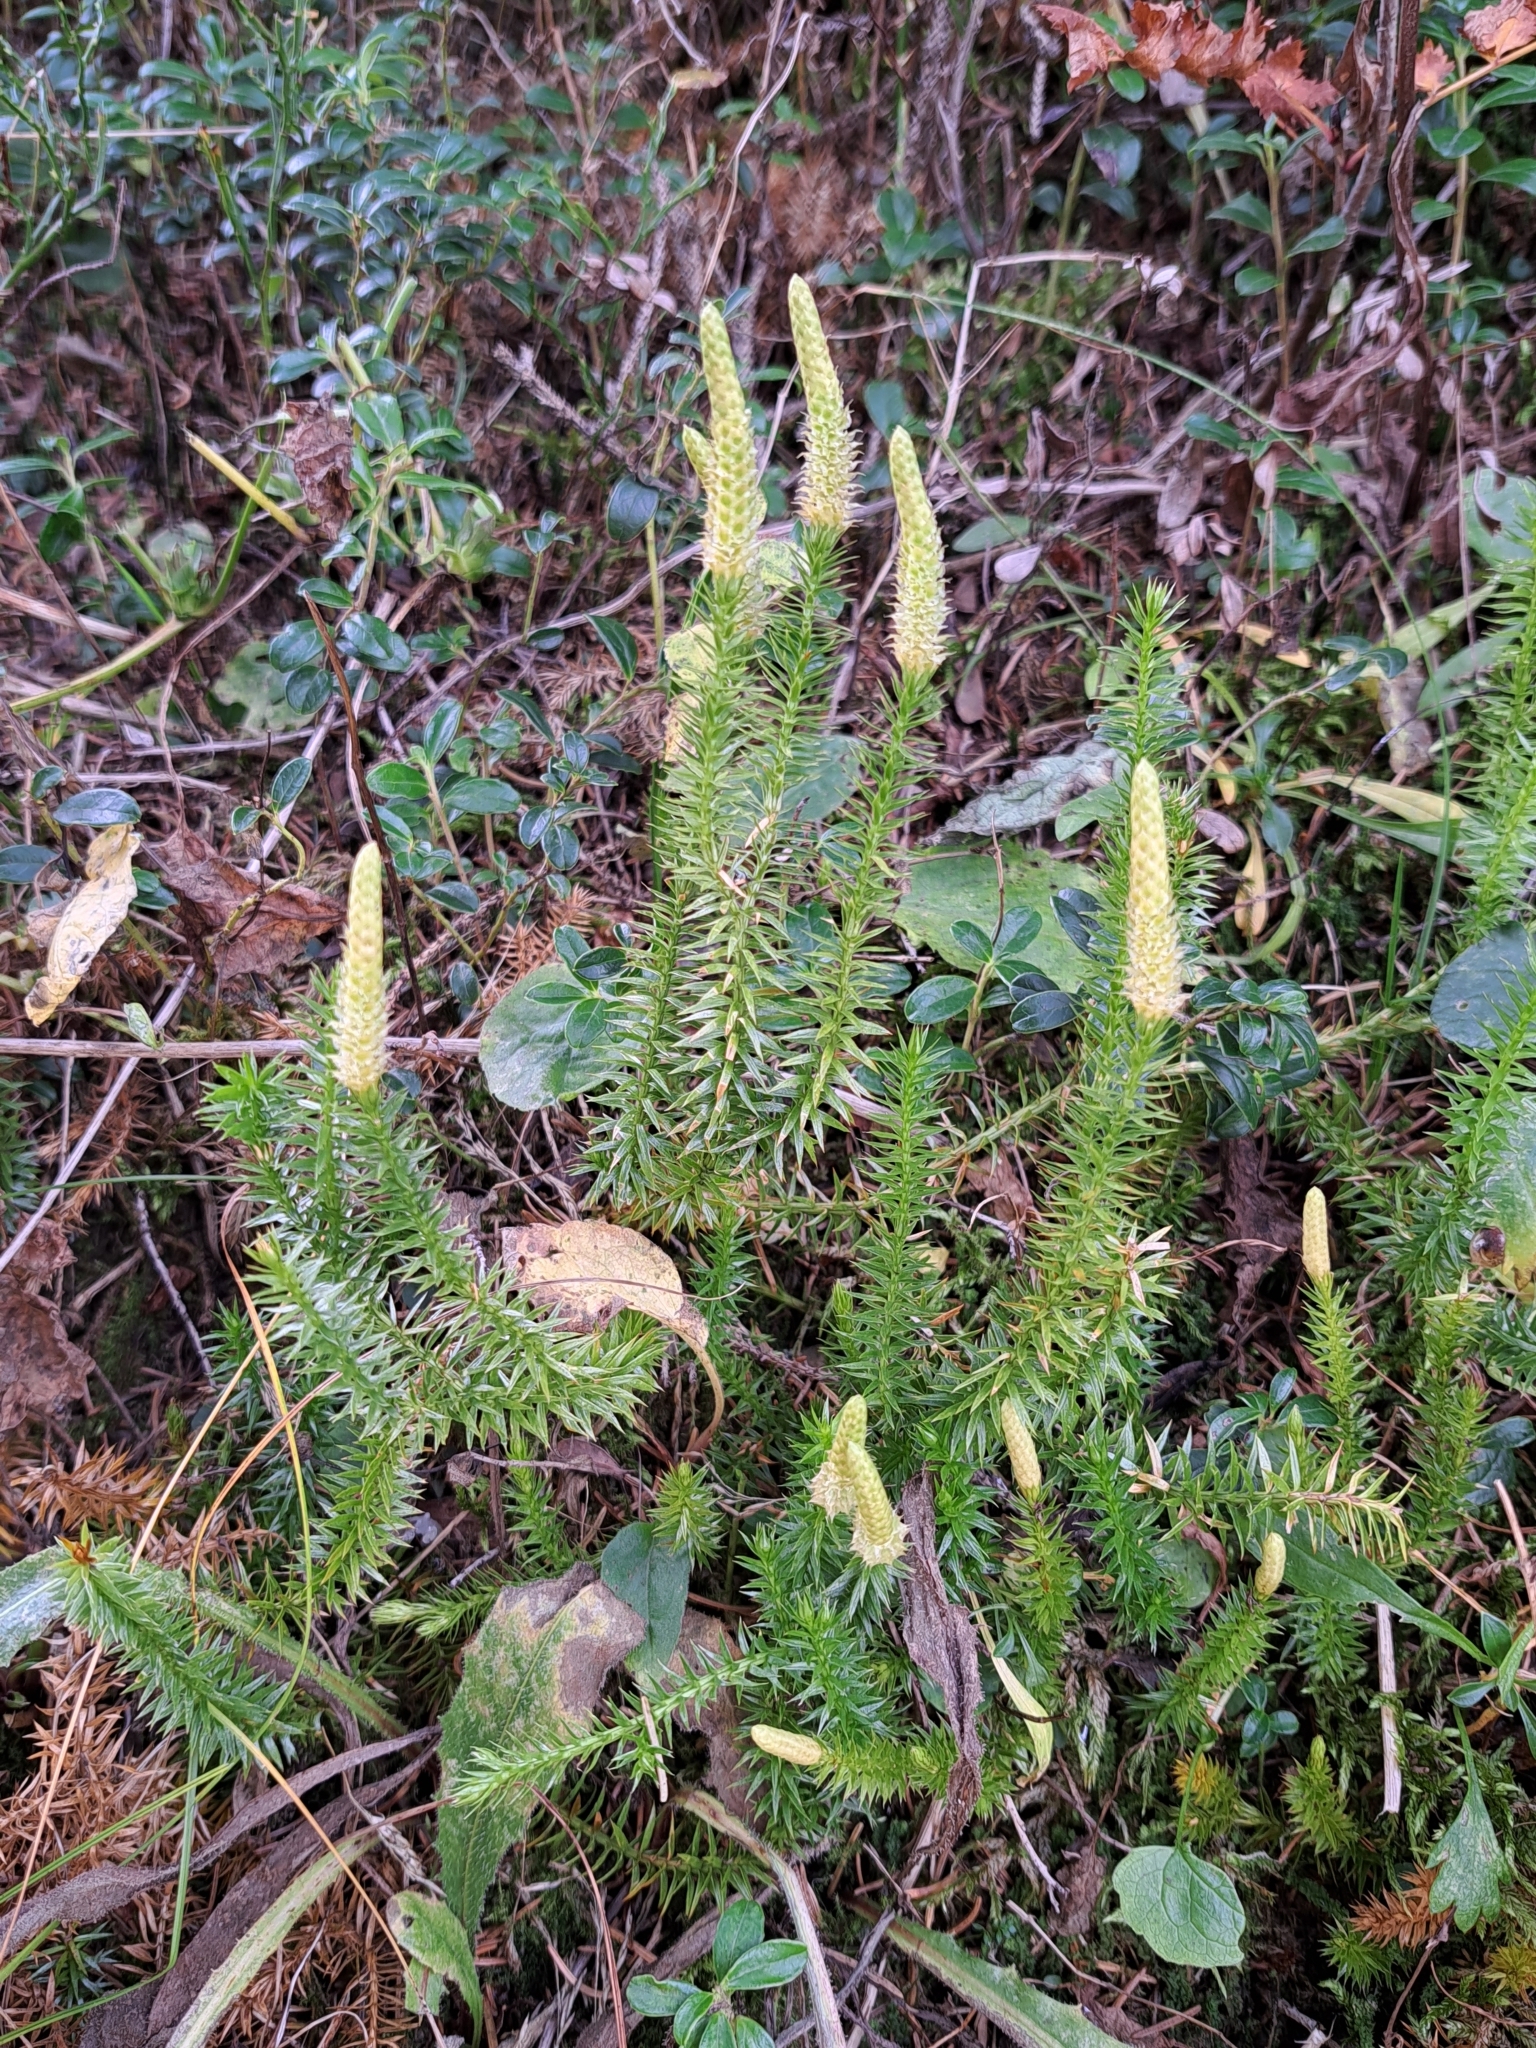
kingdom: Plantae
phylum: Tracheophyta
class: Lycopodiopsida
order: Lycopodiales
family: Lycopodiaceae
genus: Spinulum
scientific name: Spinulum annotinum
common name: Interrupted club-moss
